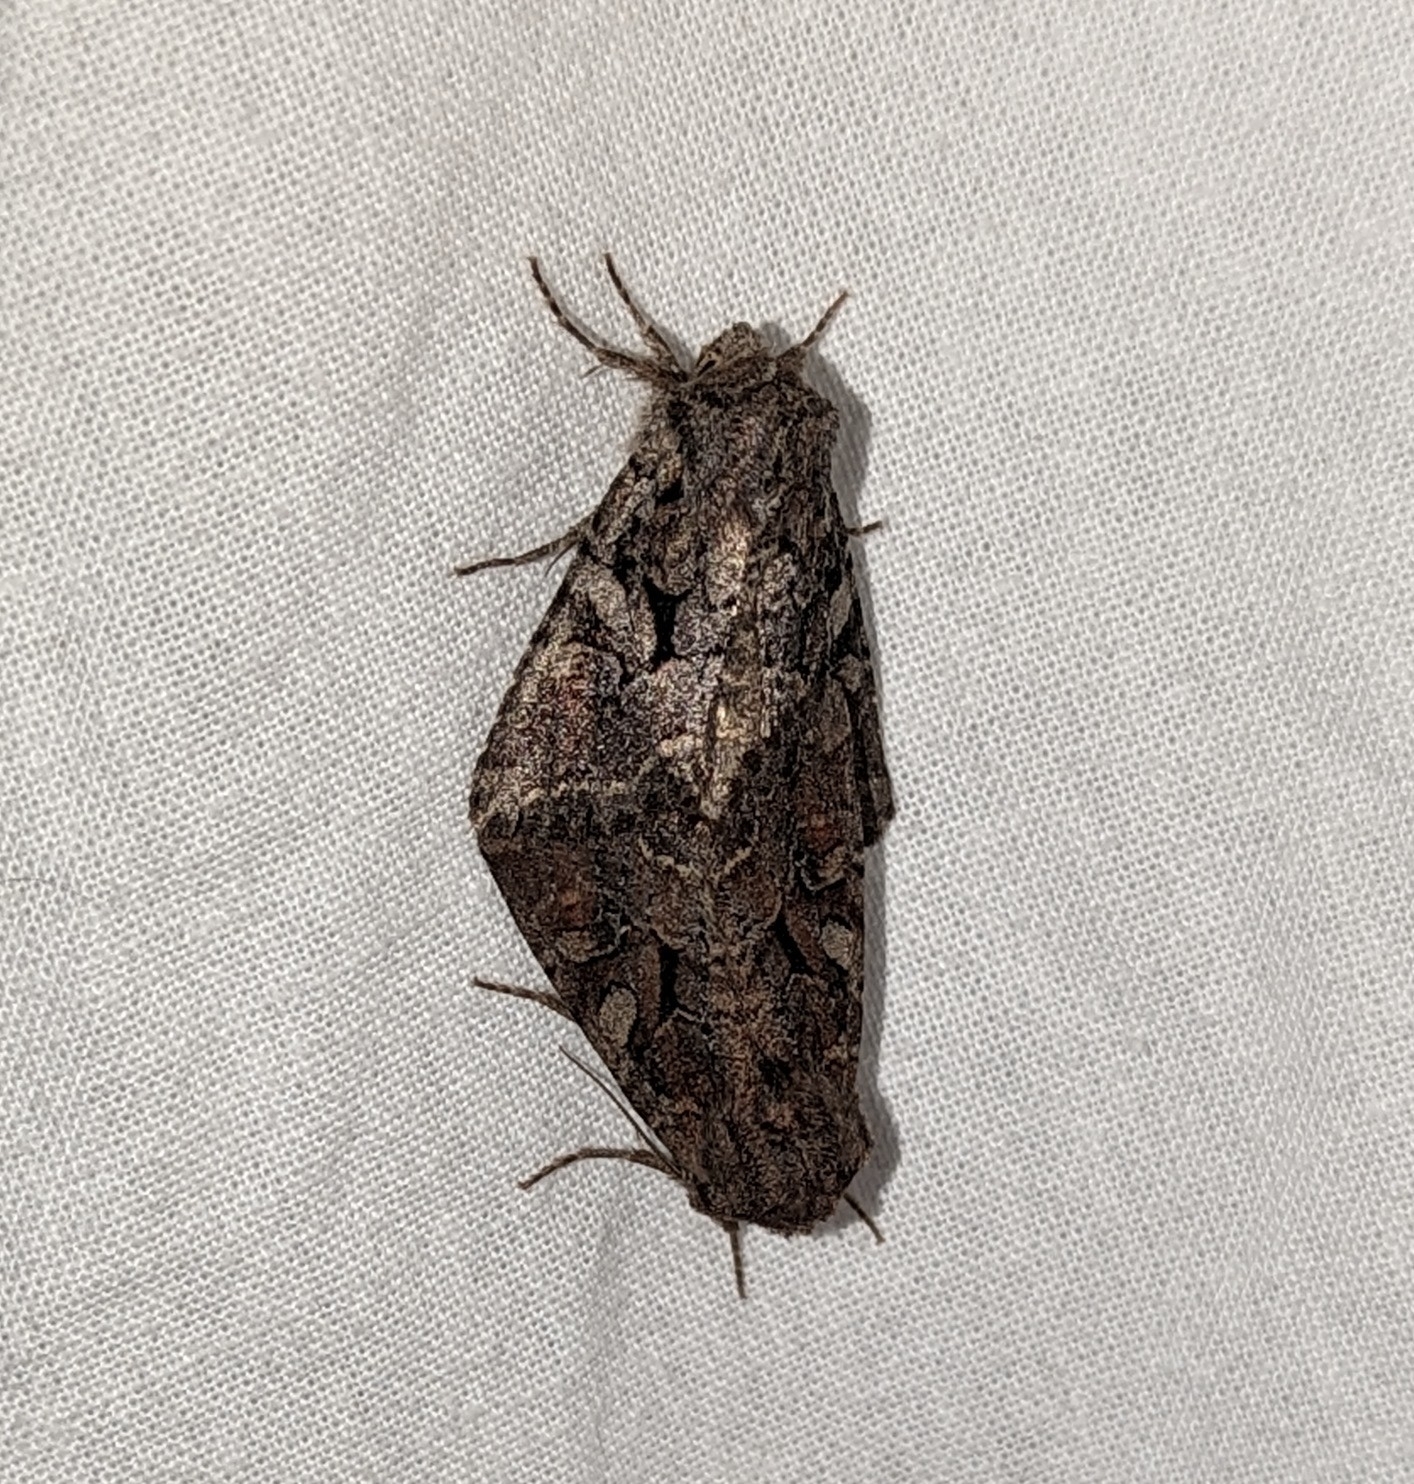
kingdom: Animalia
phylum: Arthropoda
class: Insecta
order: Lepidoptera
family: Noctuidae
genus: Orthosia
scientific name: Orthosia segregata
